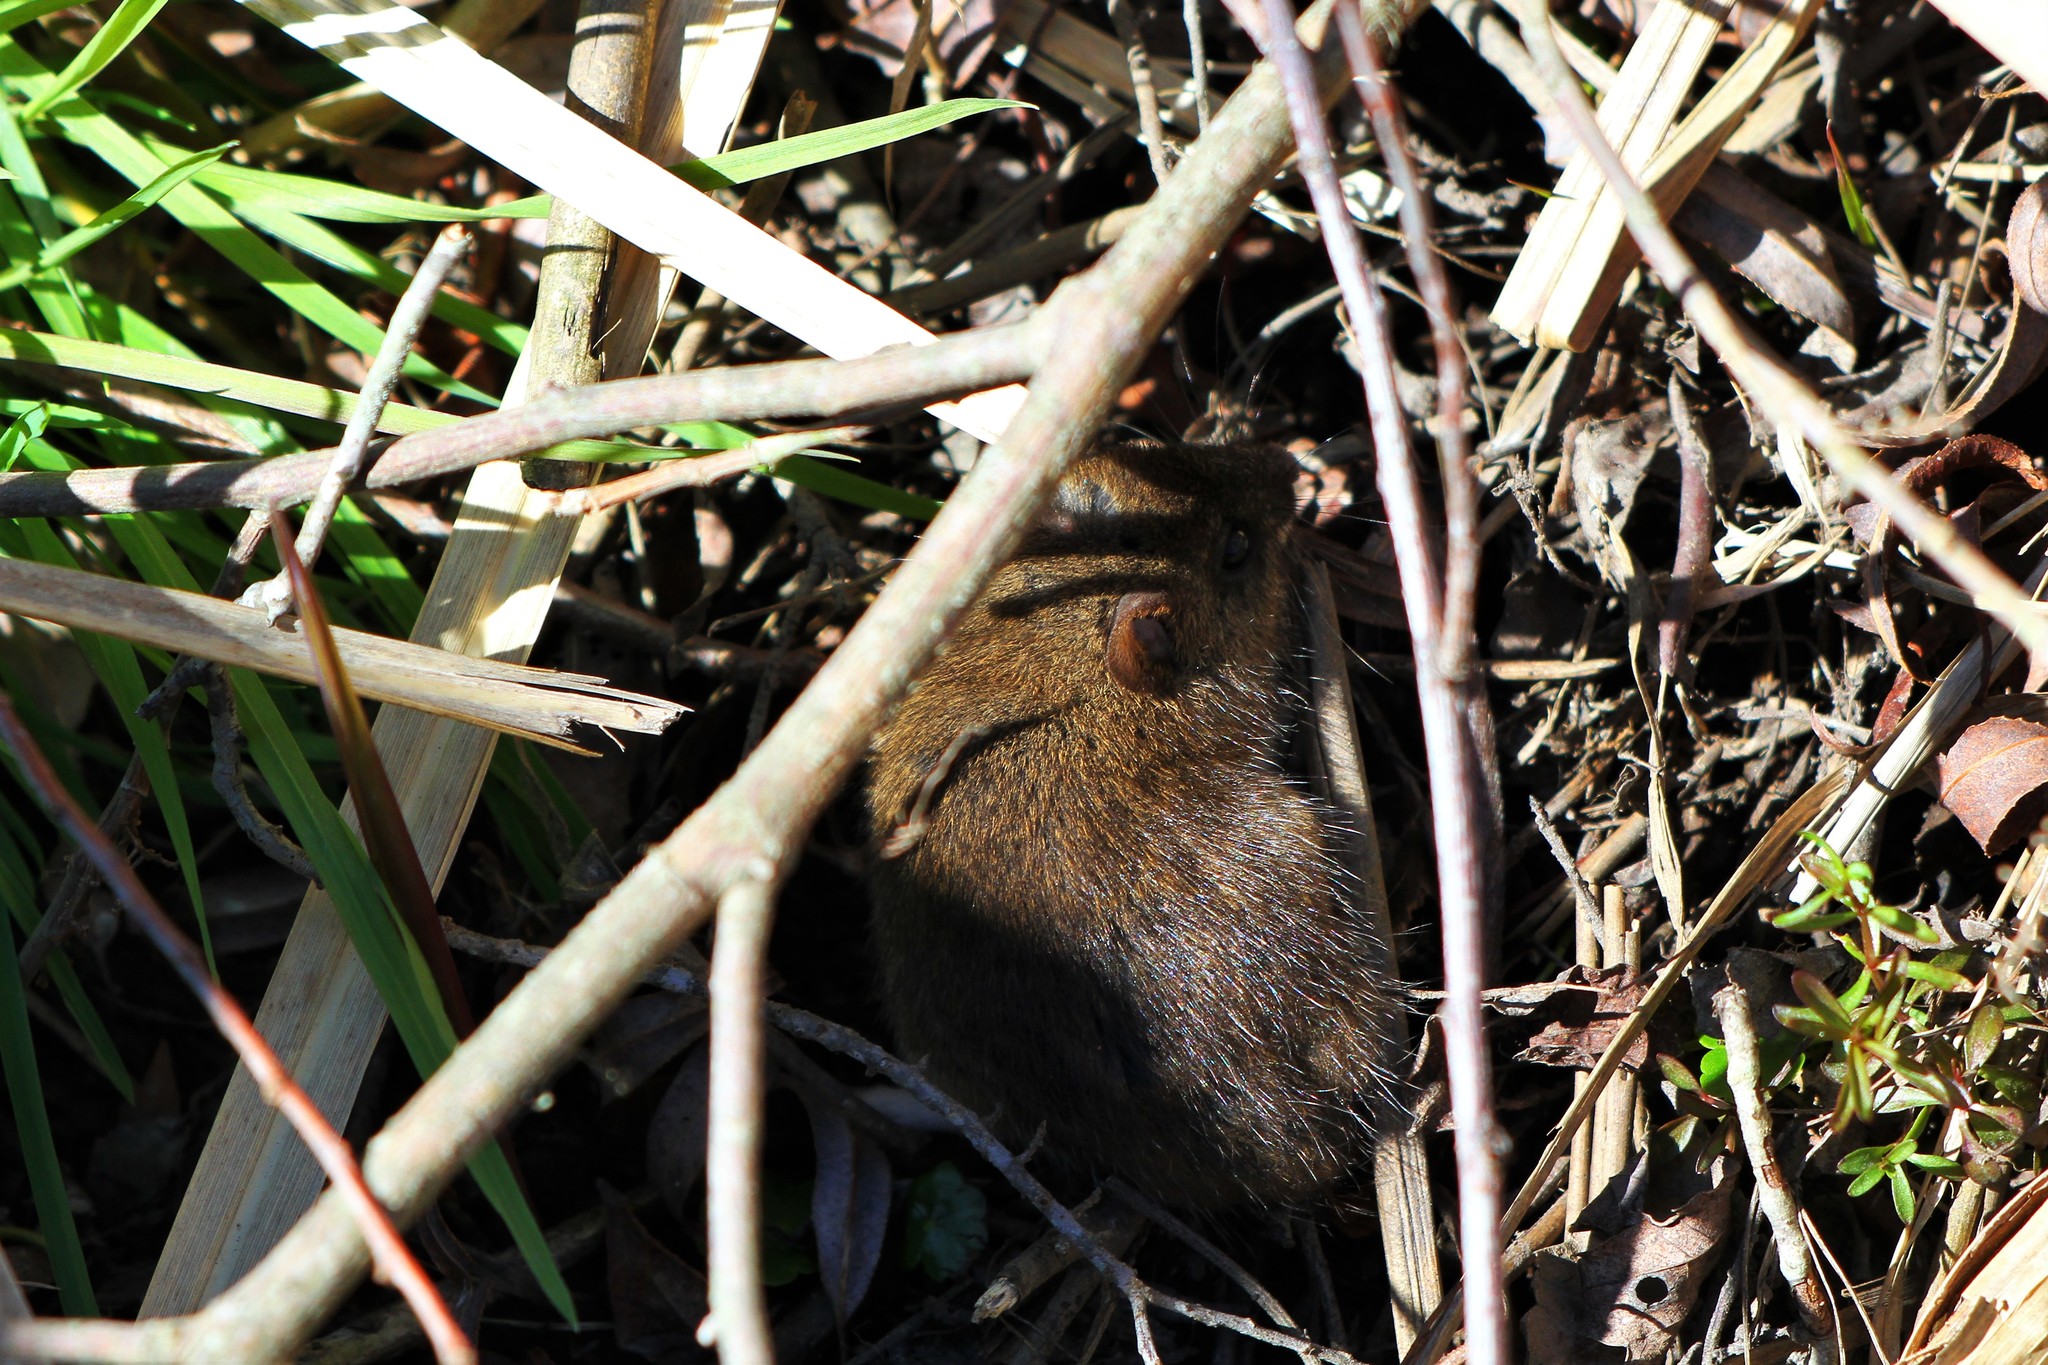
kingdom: Animalia
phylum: Chordata
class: Mammalia
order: Rodentia
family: Cricetidae
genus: Microtus
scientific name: Microtus pennsylvanicus
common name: Meadow vole
